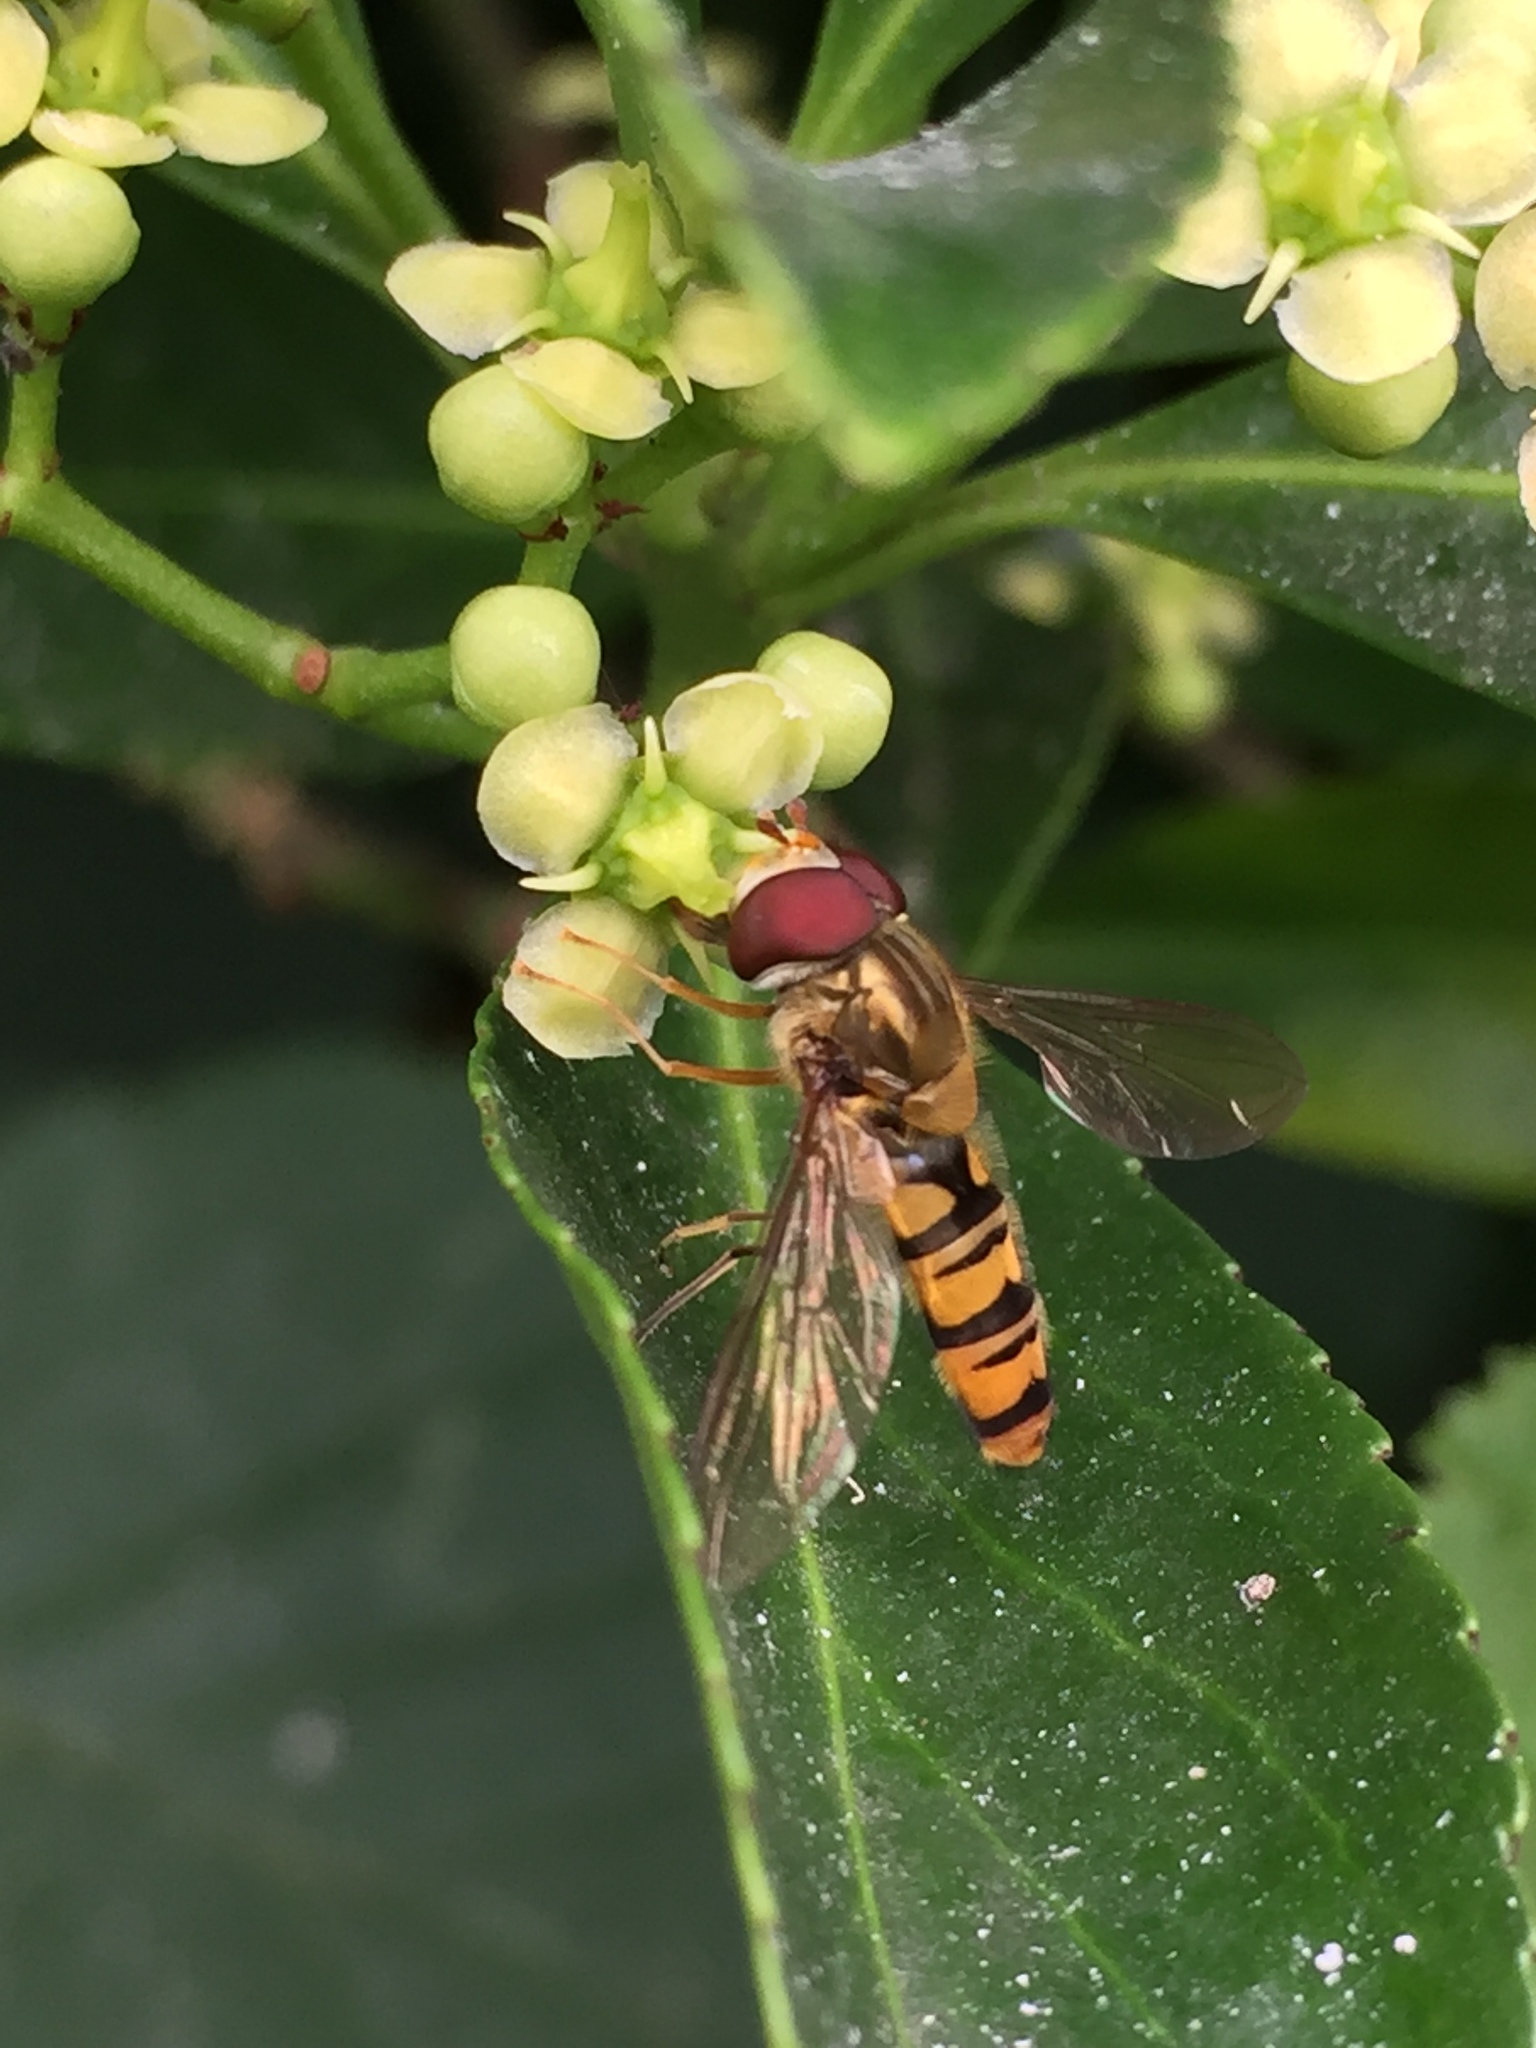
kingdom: Animalia
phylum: Arthropoda
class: Insecta
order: Diptera
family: Syrphidae
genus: Episyrphus
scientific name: Episyrphus balteatus
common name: Marmalade hoverfly
